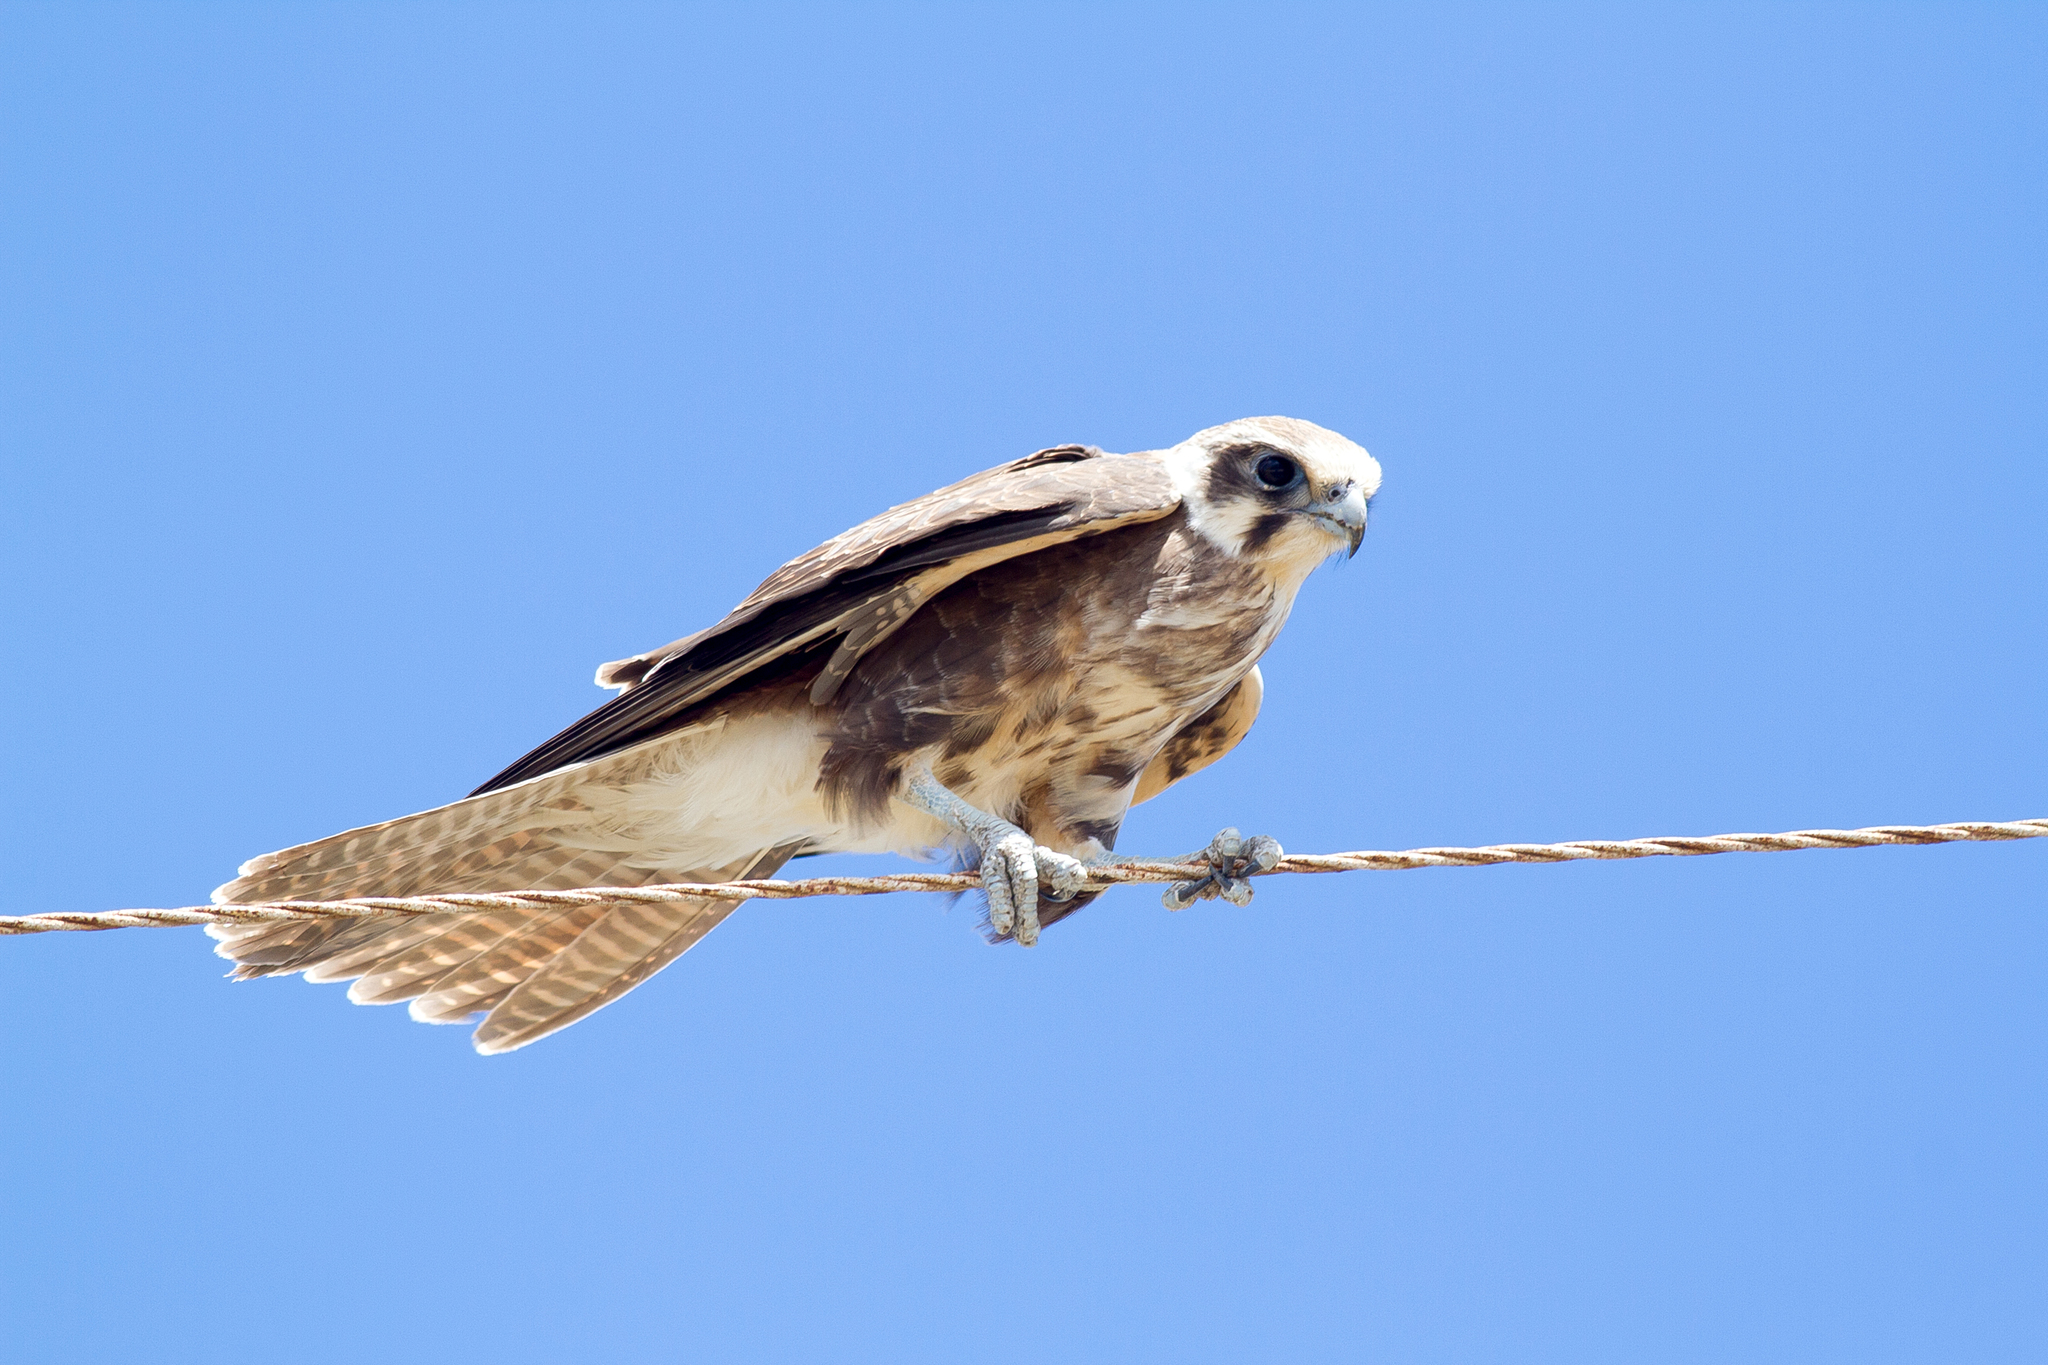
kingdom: Animalia
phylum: Chordata
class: Aves
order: Falconiformes
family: Falconidae
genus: Falco
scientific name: Falco berigora
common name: Brown falcon
